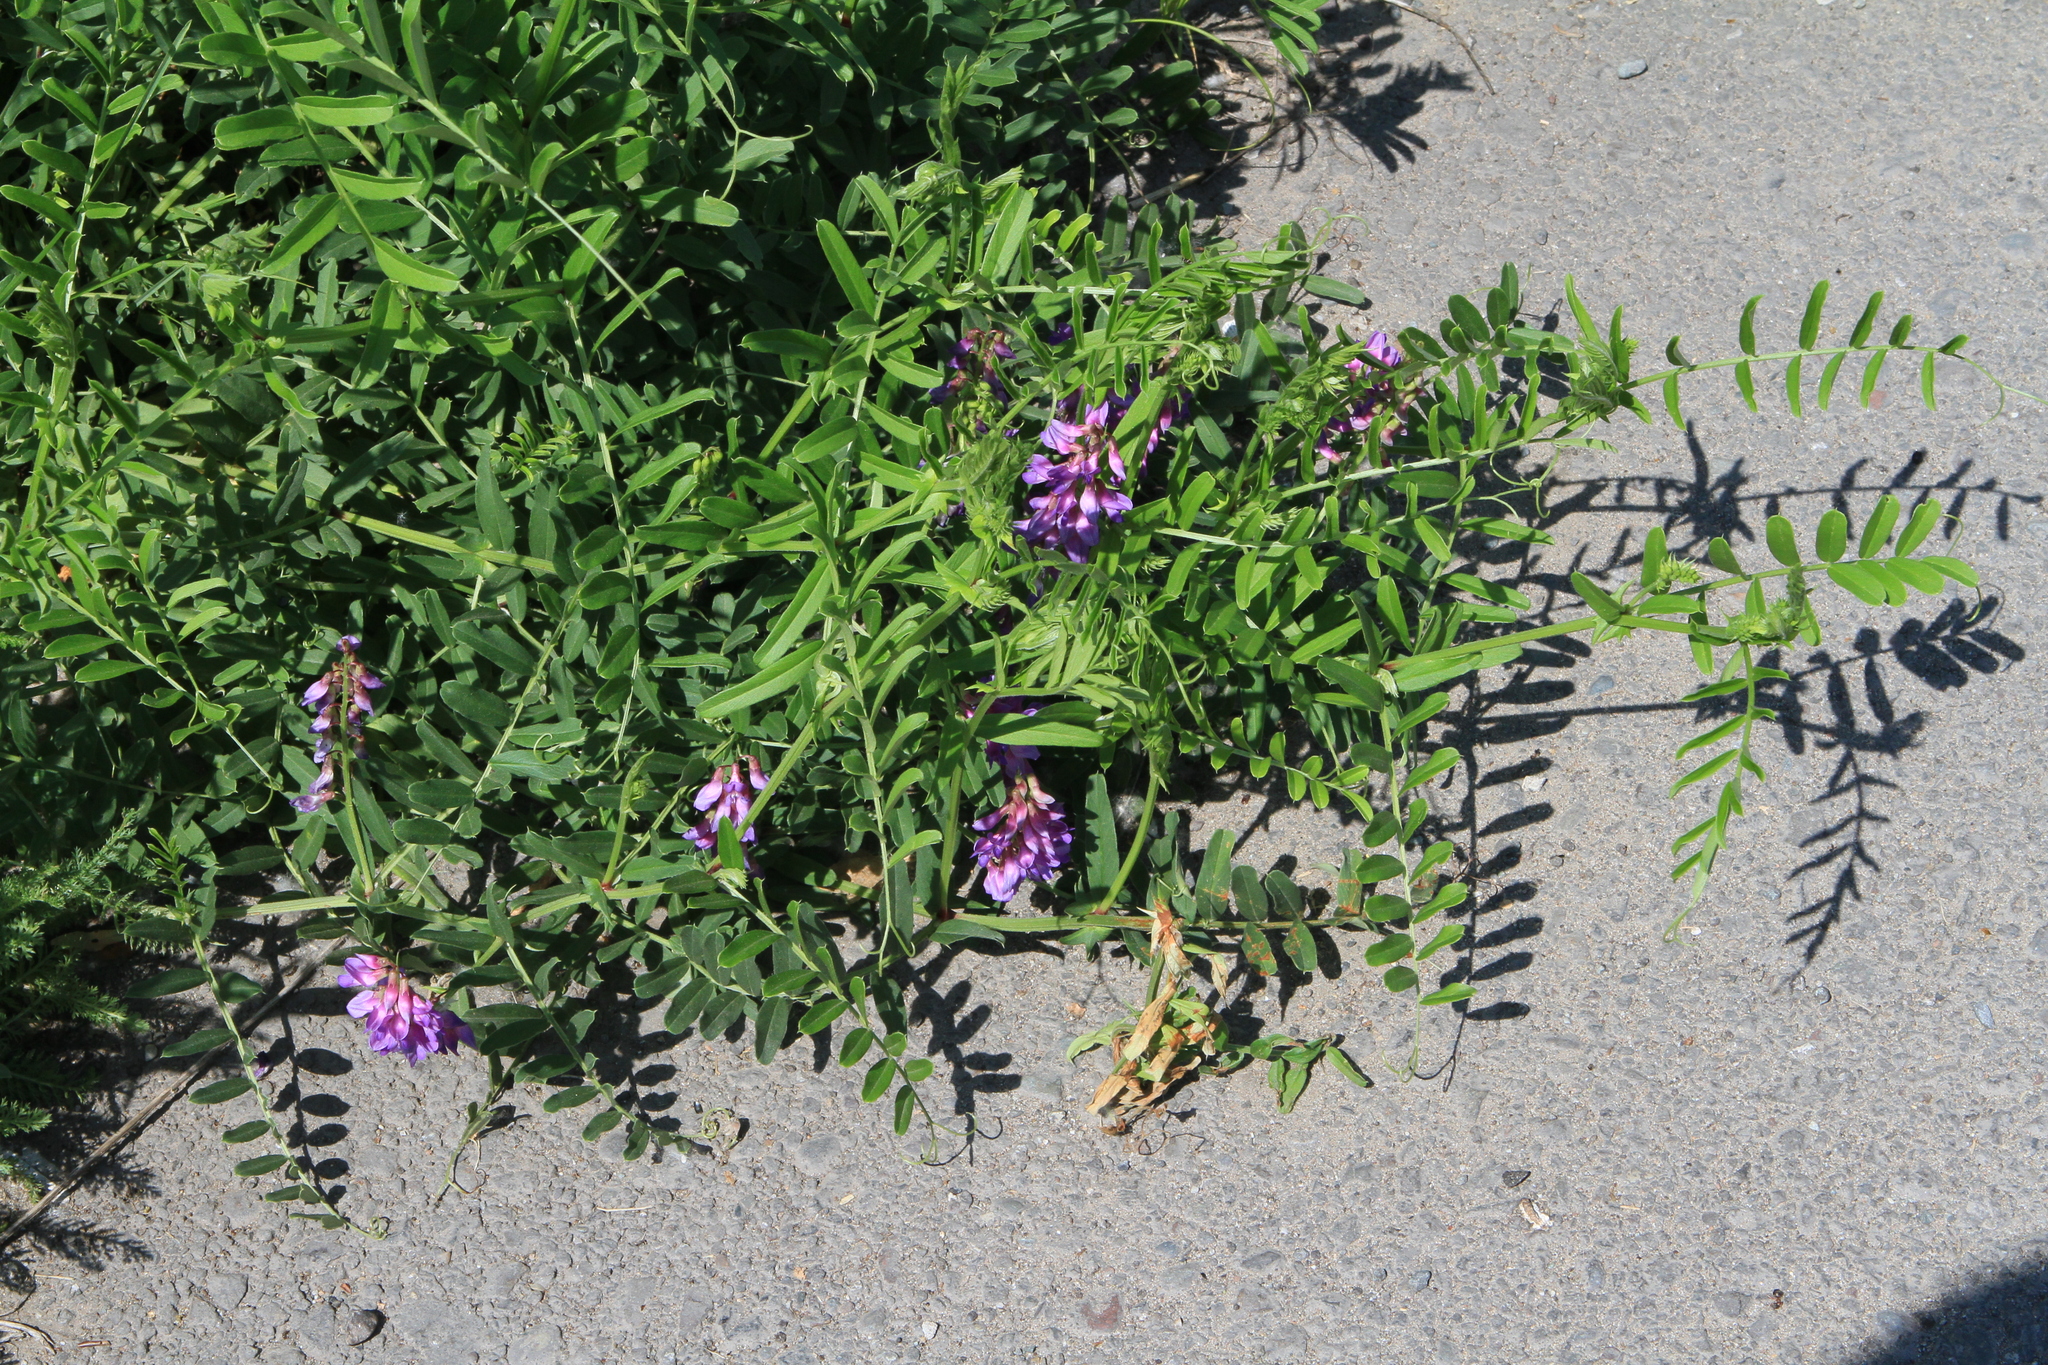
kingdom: Plantae
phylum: Tracheophyta
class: Magnoliopsida
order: Fabales
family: Fabaceae
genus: Vicia
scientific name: Vicia amoena
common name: Cheder ebs
